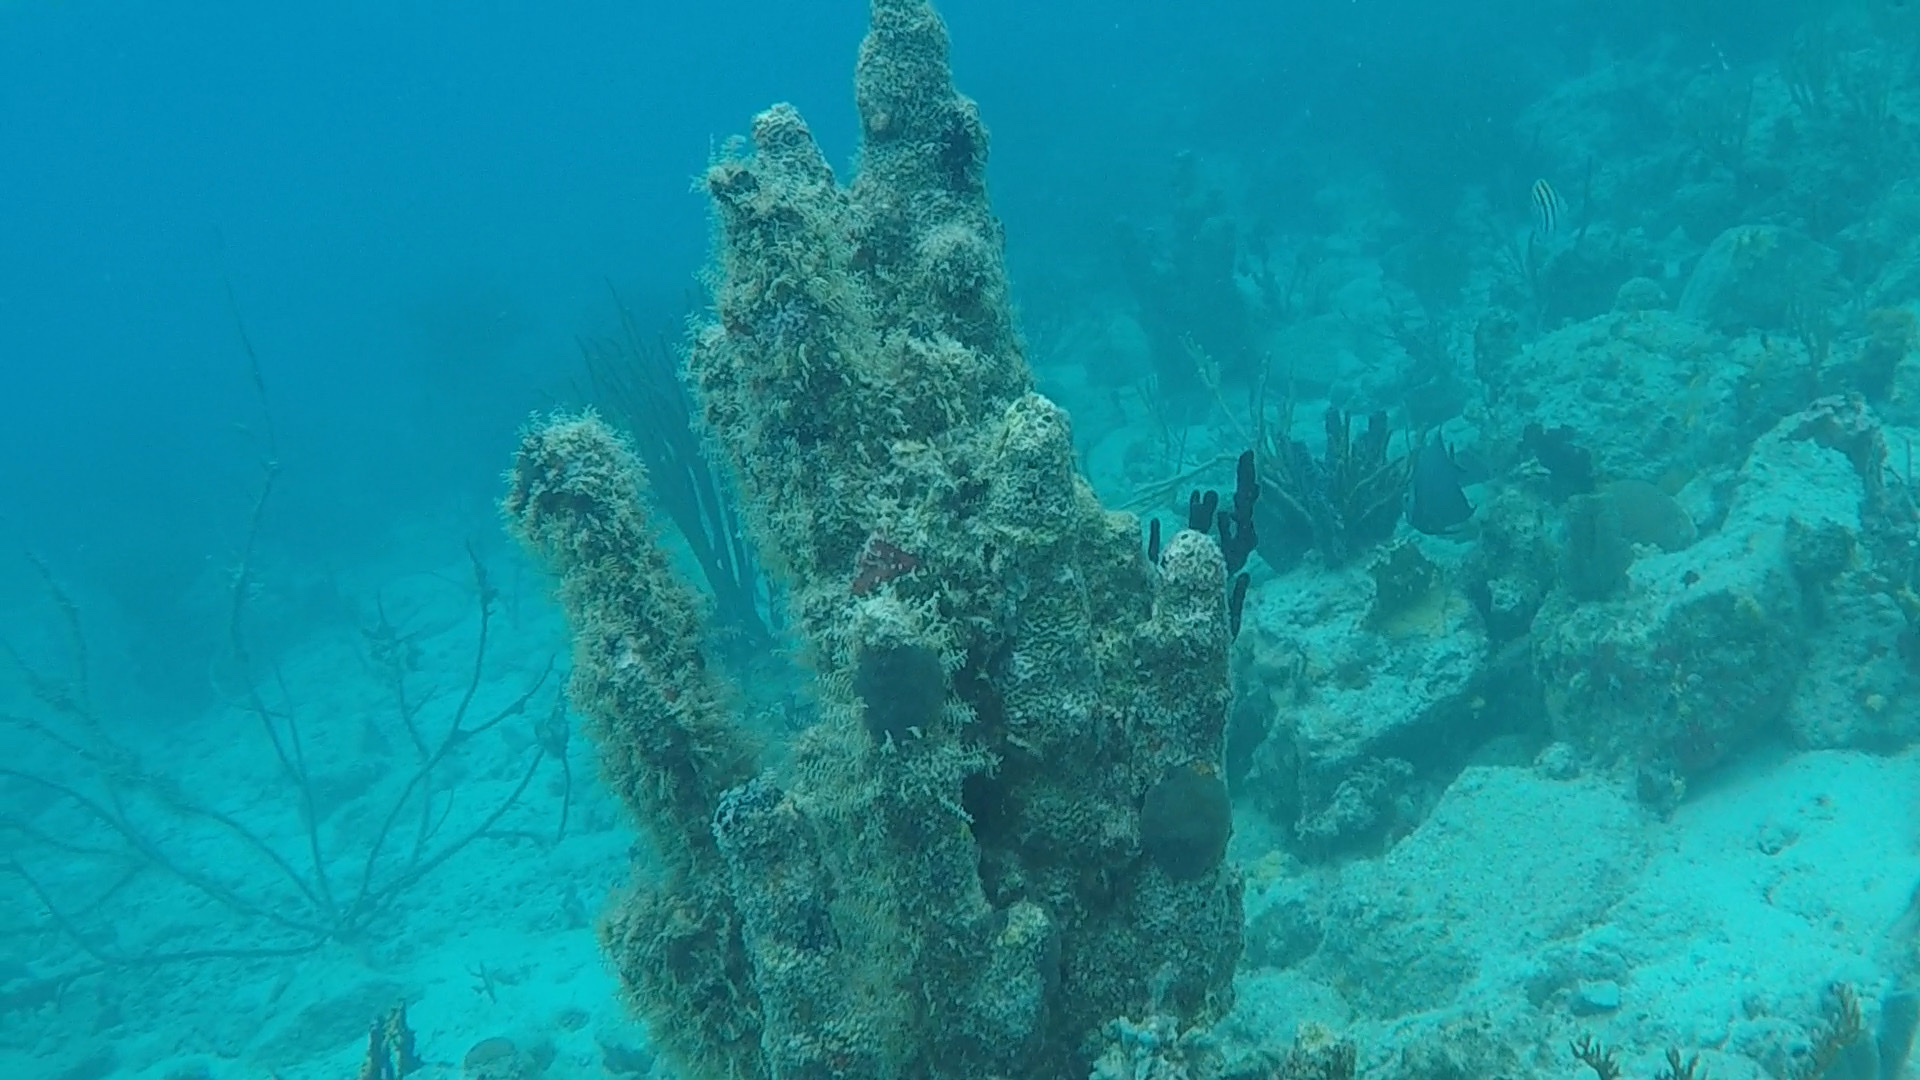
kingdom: Animalia
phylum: Cnidaria
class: Anthozoa
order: Scleractinia
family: Meandrinidae
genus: Dendrogyra
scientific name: Dendrogyra cylindrus
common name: Pillar coral
